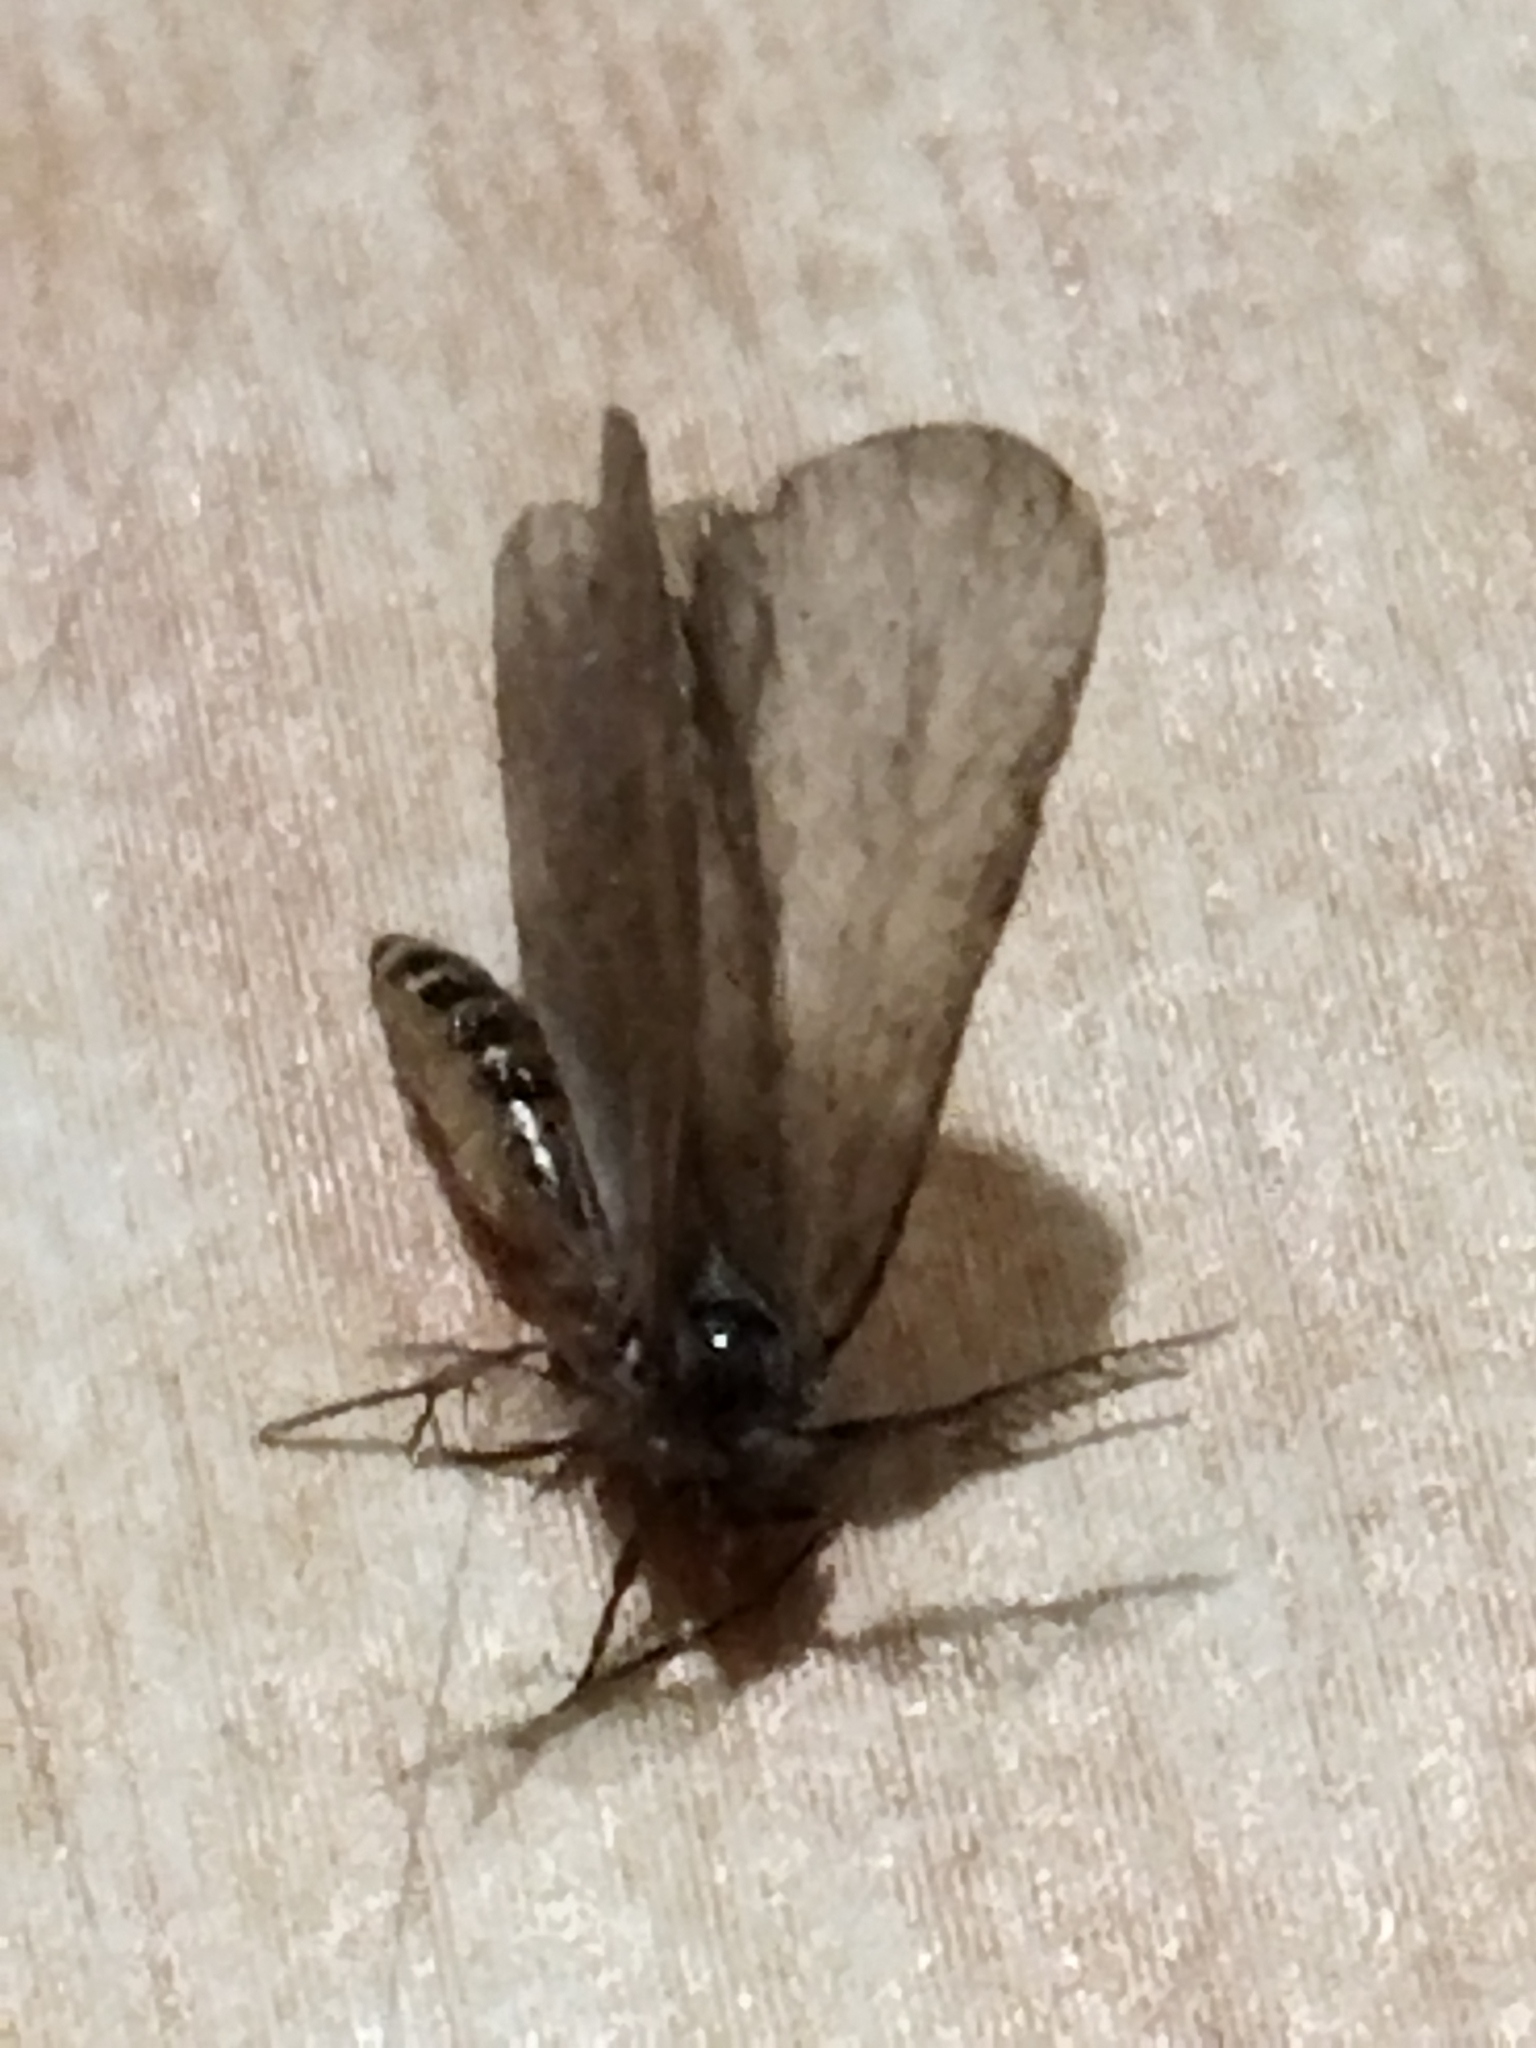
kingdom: Animalia
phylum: Arthropoda
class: Insecta
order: Lepidoptera
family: Psychidae
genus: Rebelia
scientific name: Rebelia perlucidella
